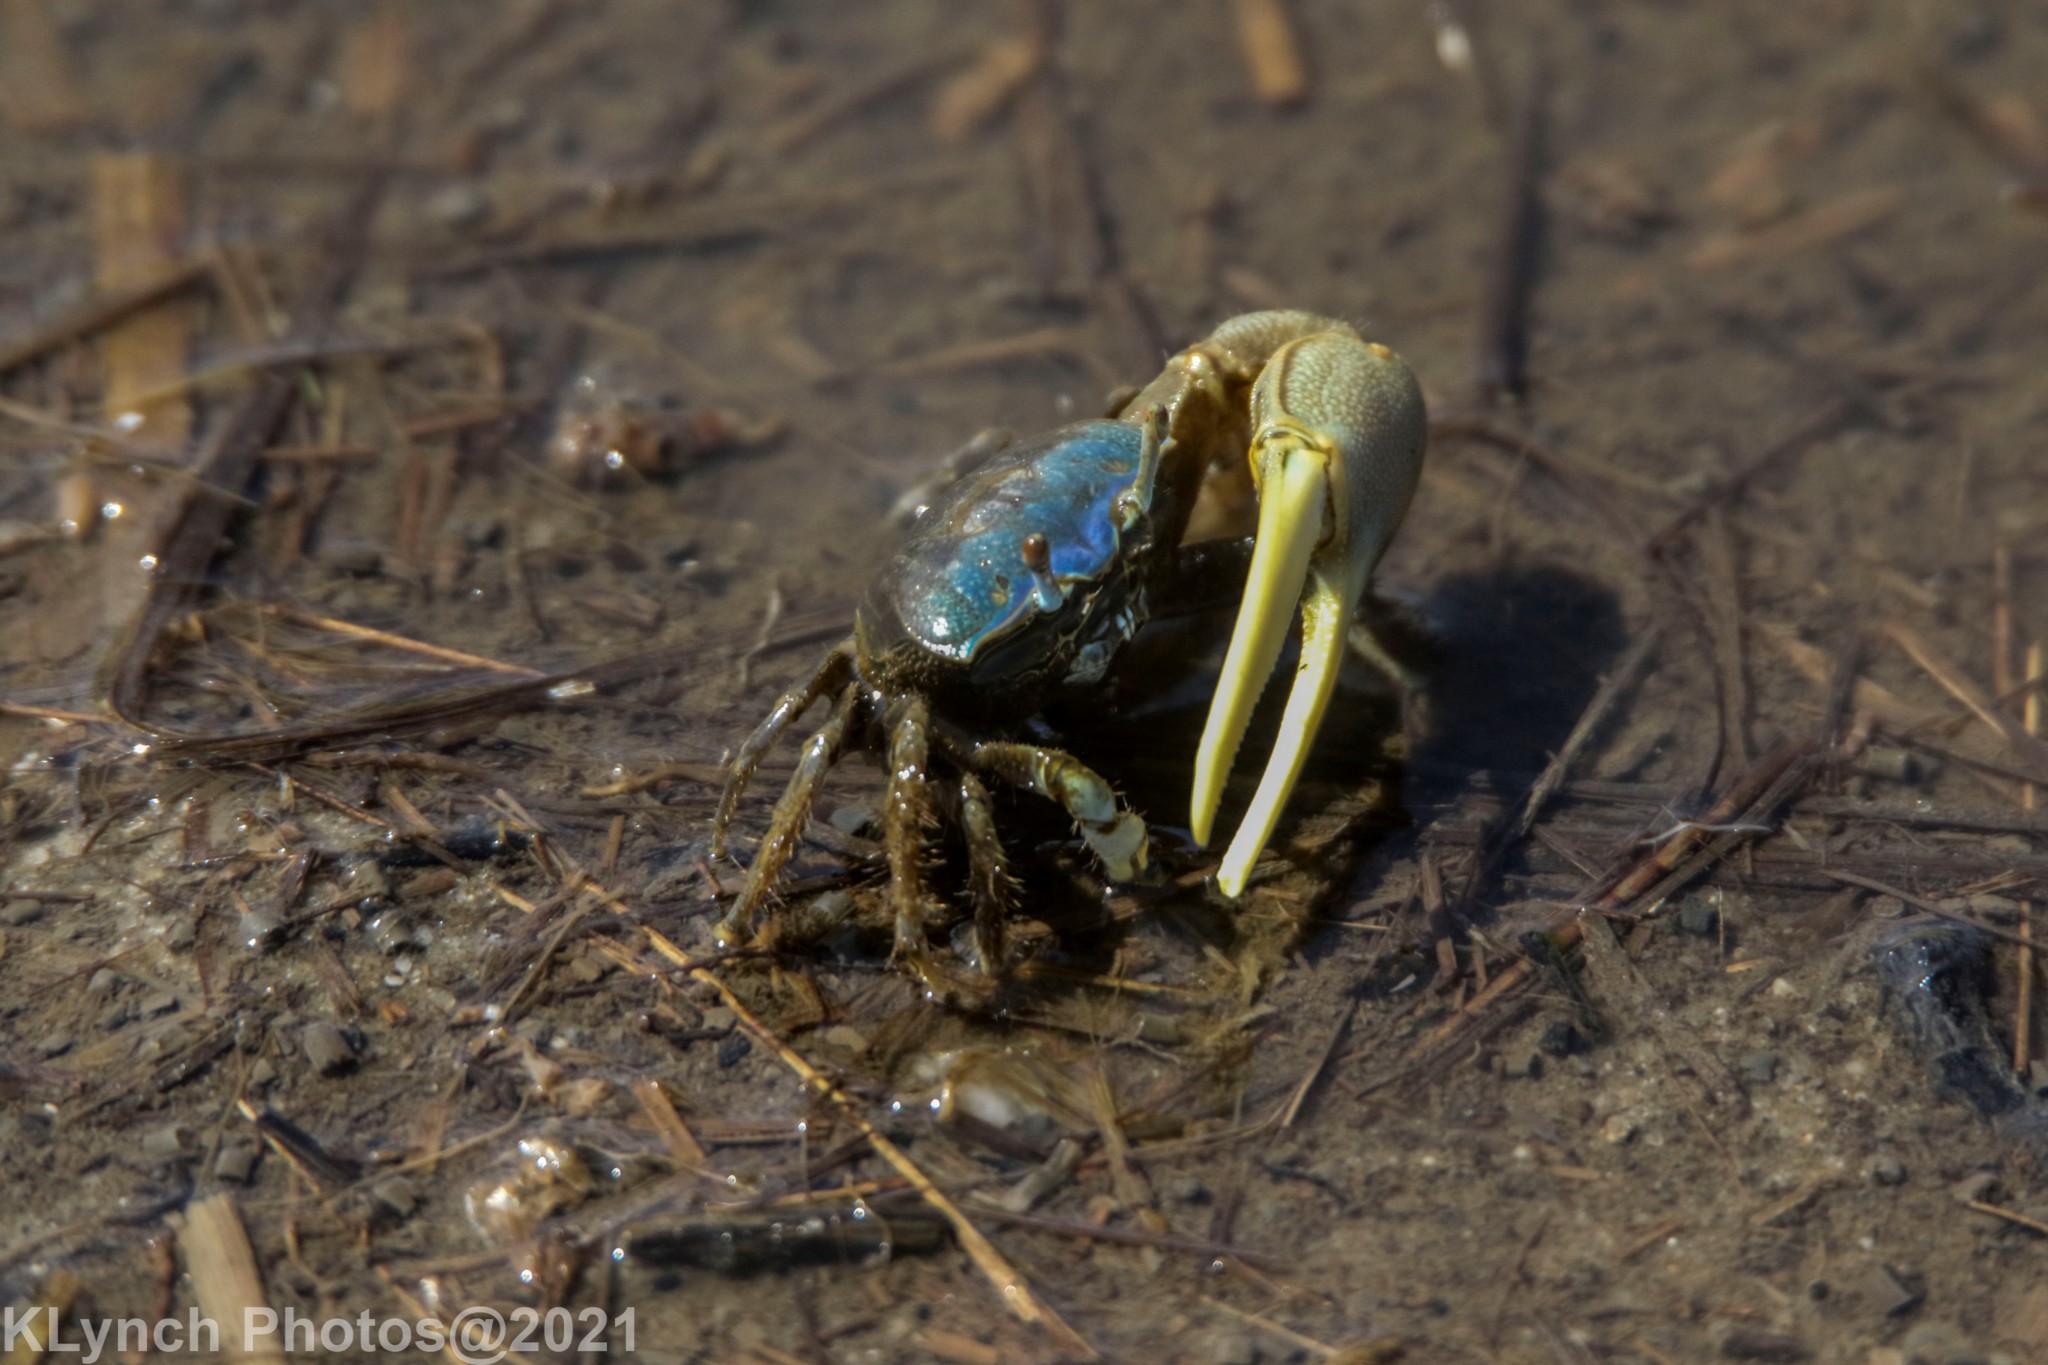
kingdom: Animalia
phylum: Arthropoda
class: Malacostraca
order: Decapoda
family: Ocypodidae
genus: Minuca
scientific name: Minuca pugnax
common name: Mud fiddler crab
